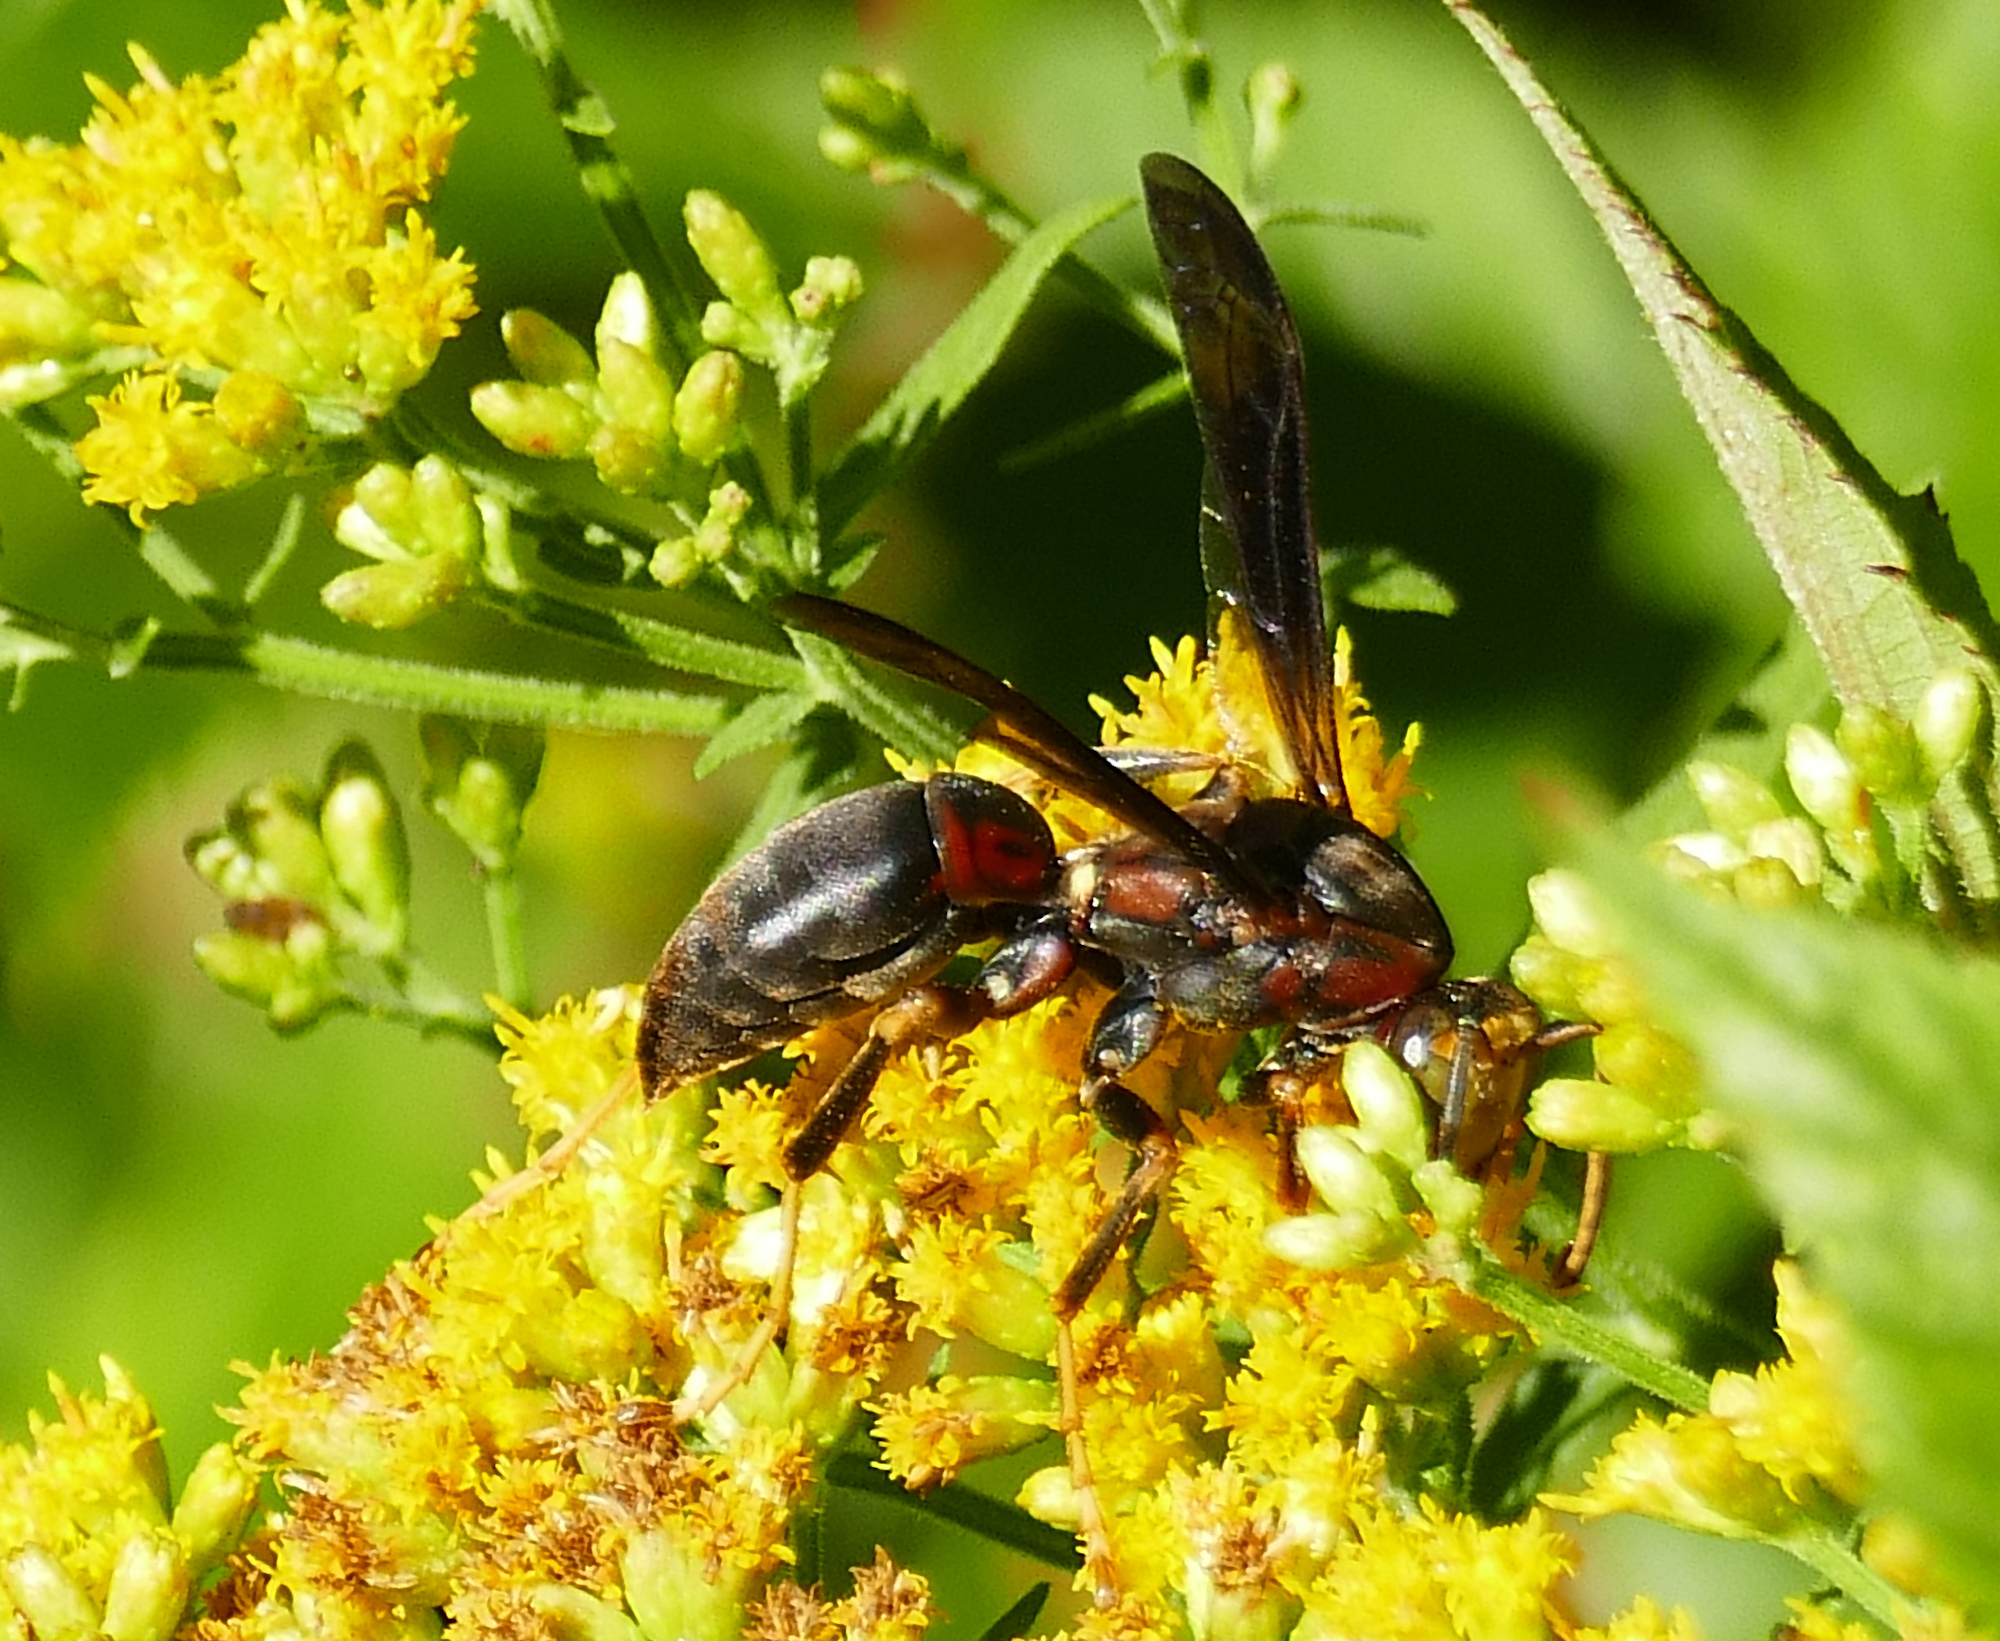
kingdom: Animalia
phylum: Arthropoda
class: Insecta
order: Hymenoptera
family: Eumenidae
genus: Polistes
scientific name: Polistes metricus
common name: Metric paper wasp
